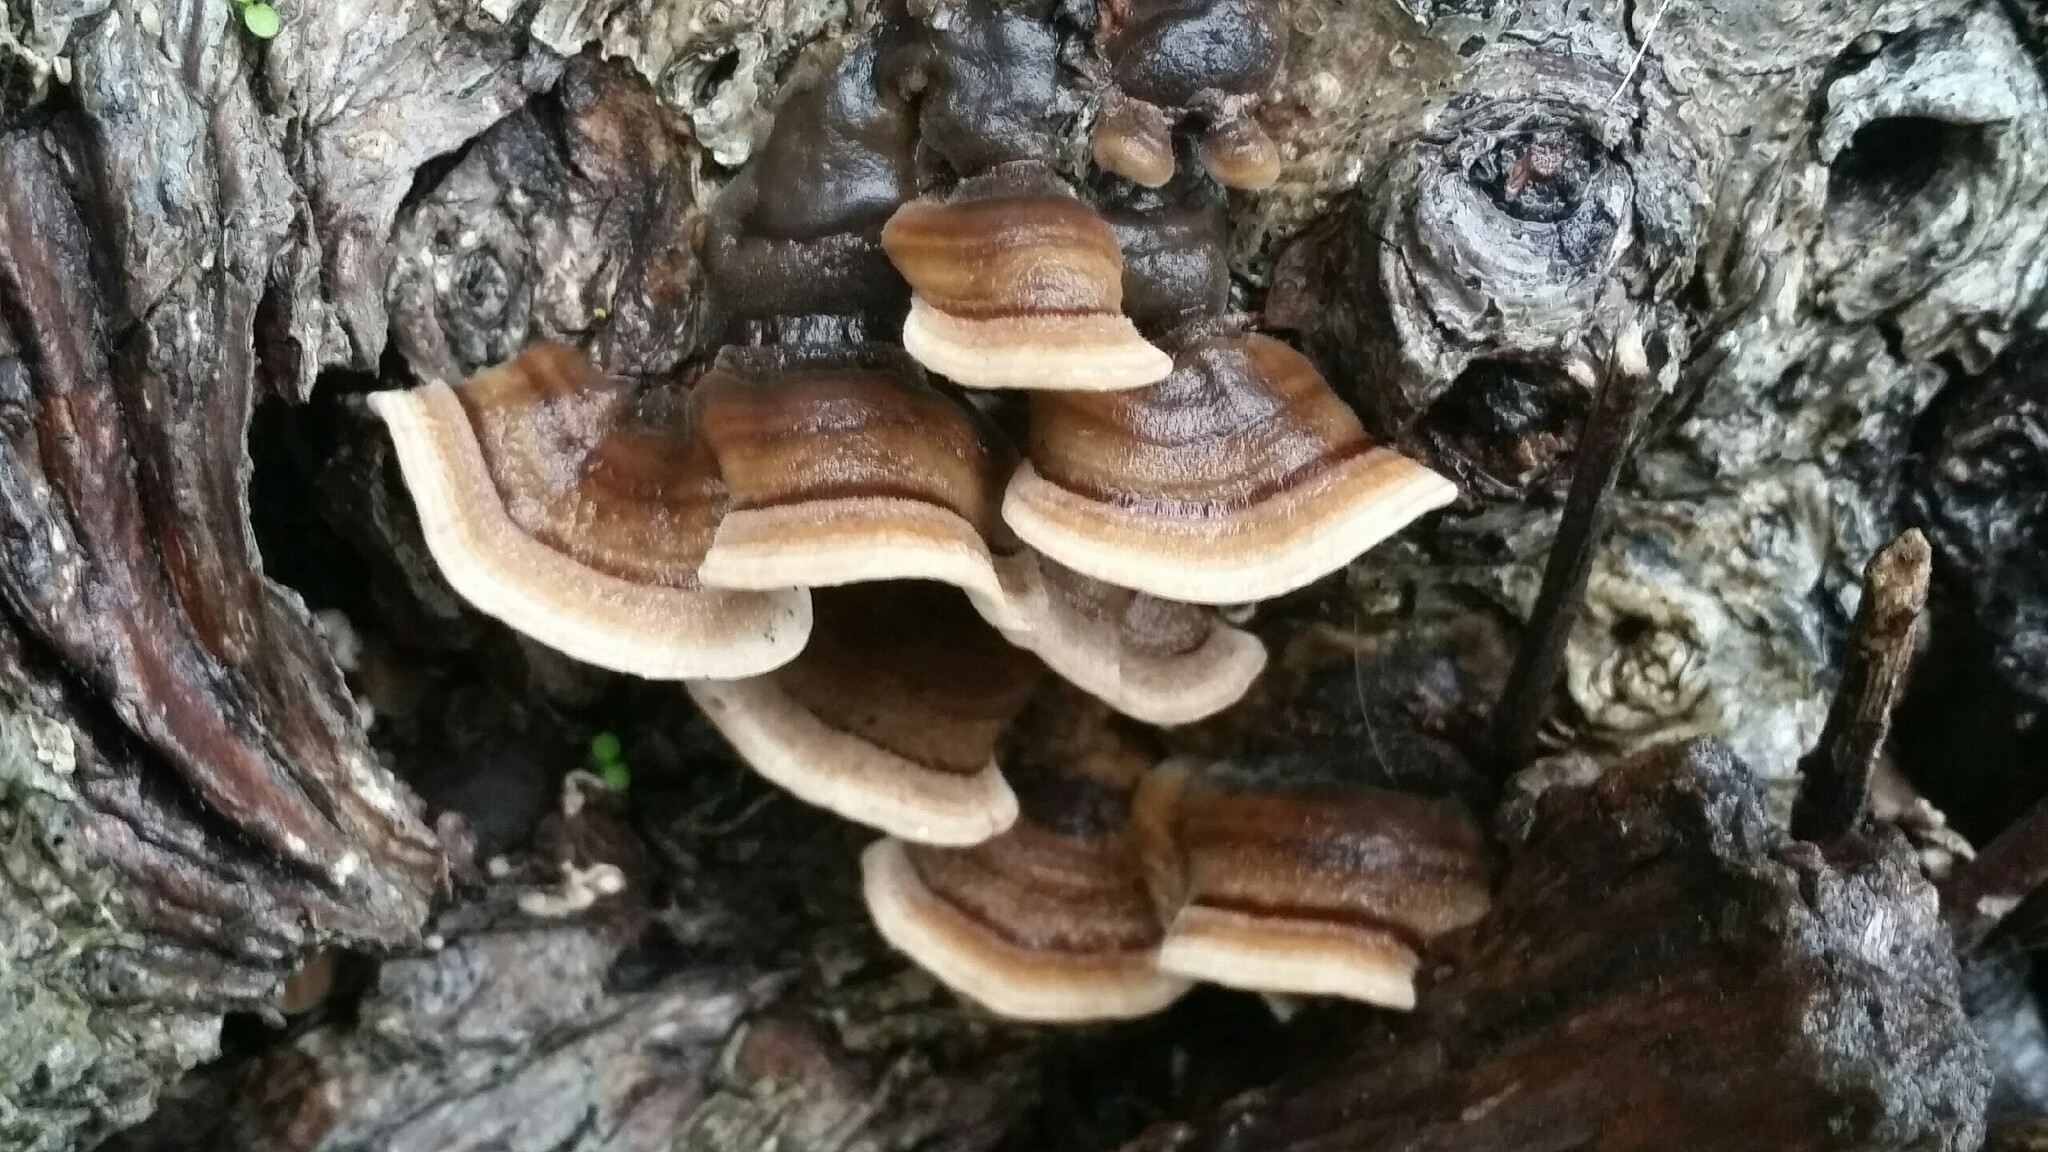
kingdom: Fungi
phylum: Basidiomycota
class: Agaricomycetes
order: Polyporales
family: Polyporaceae
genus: Trametes
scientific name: Trametes versicolor
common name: Turkeytail
